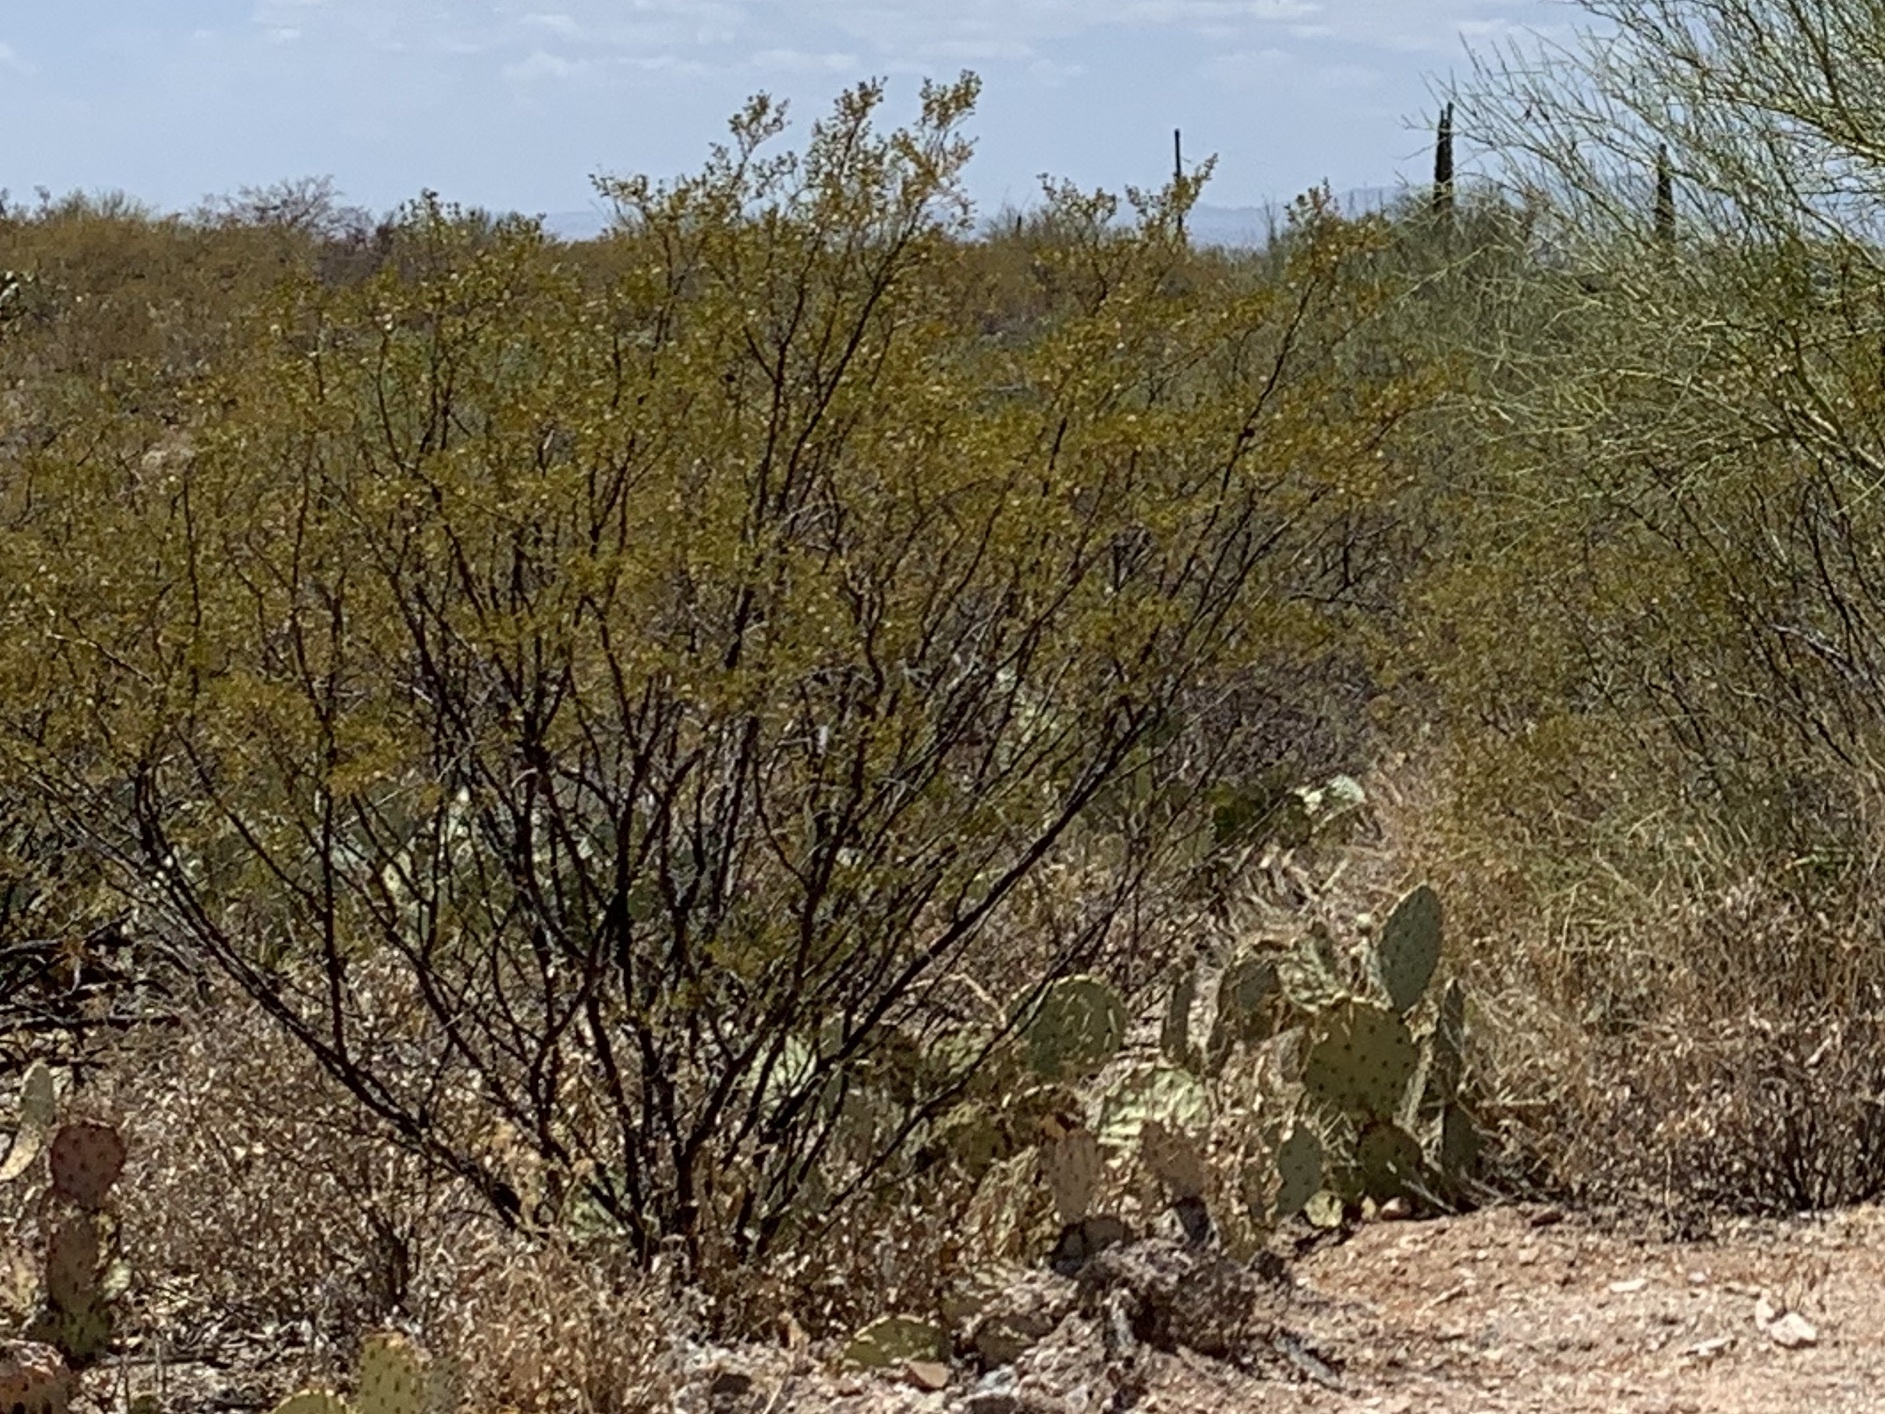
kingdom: Plantae
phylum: Tracheophyta
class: Magnoliopsida
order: Zygophyllales
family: Zygophyllaceae
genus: Larrea
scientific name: Larrea tridentata
